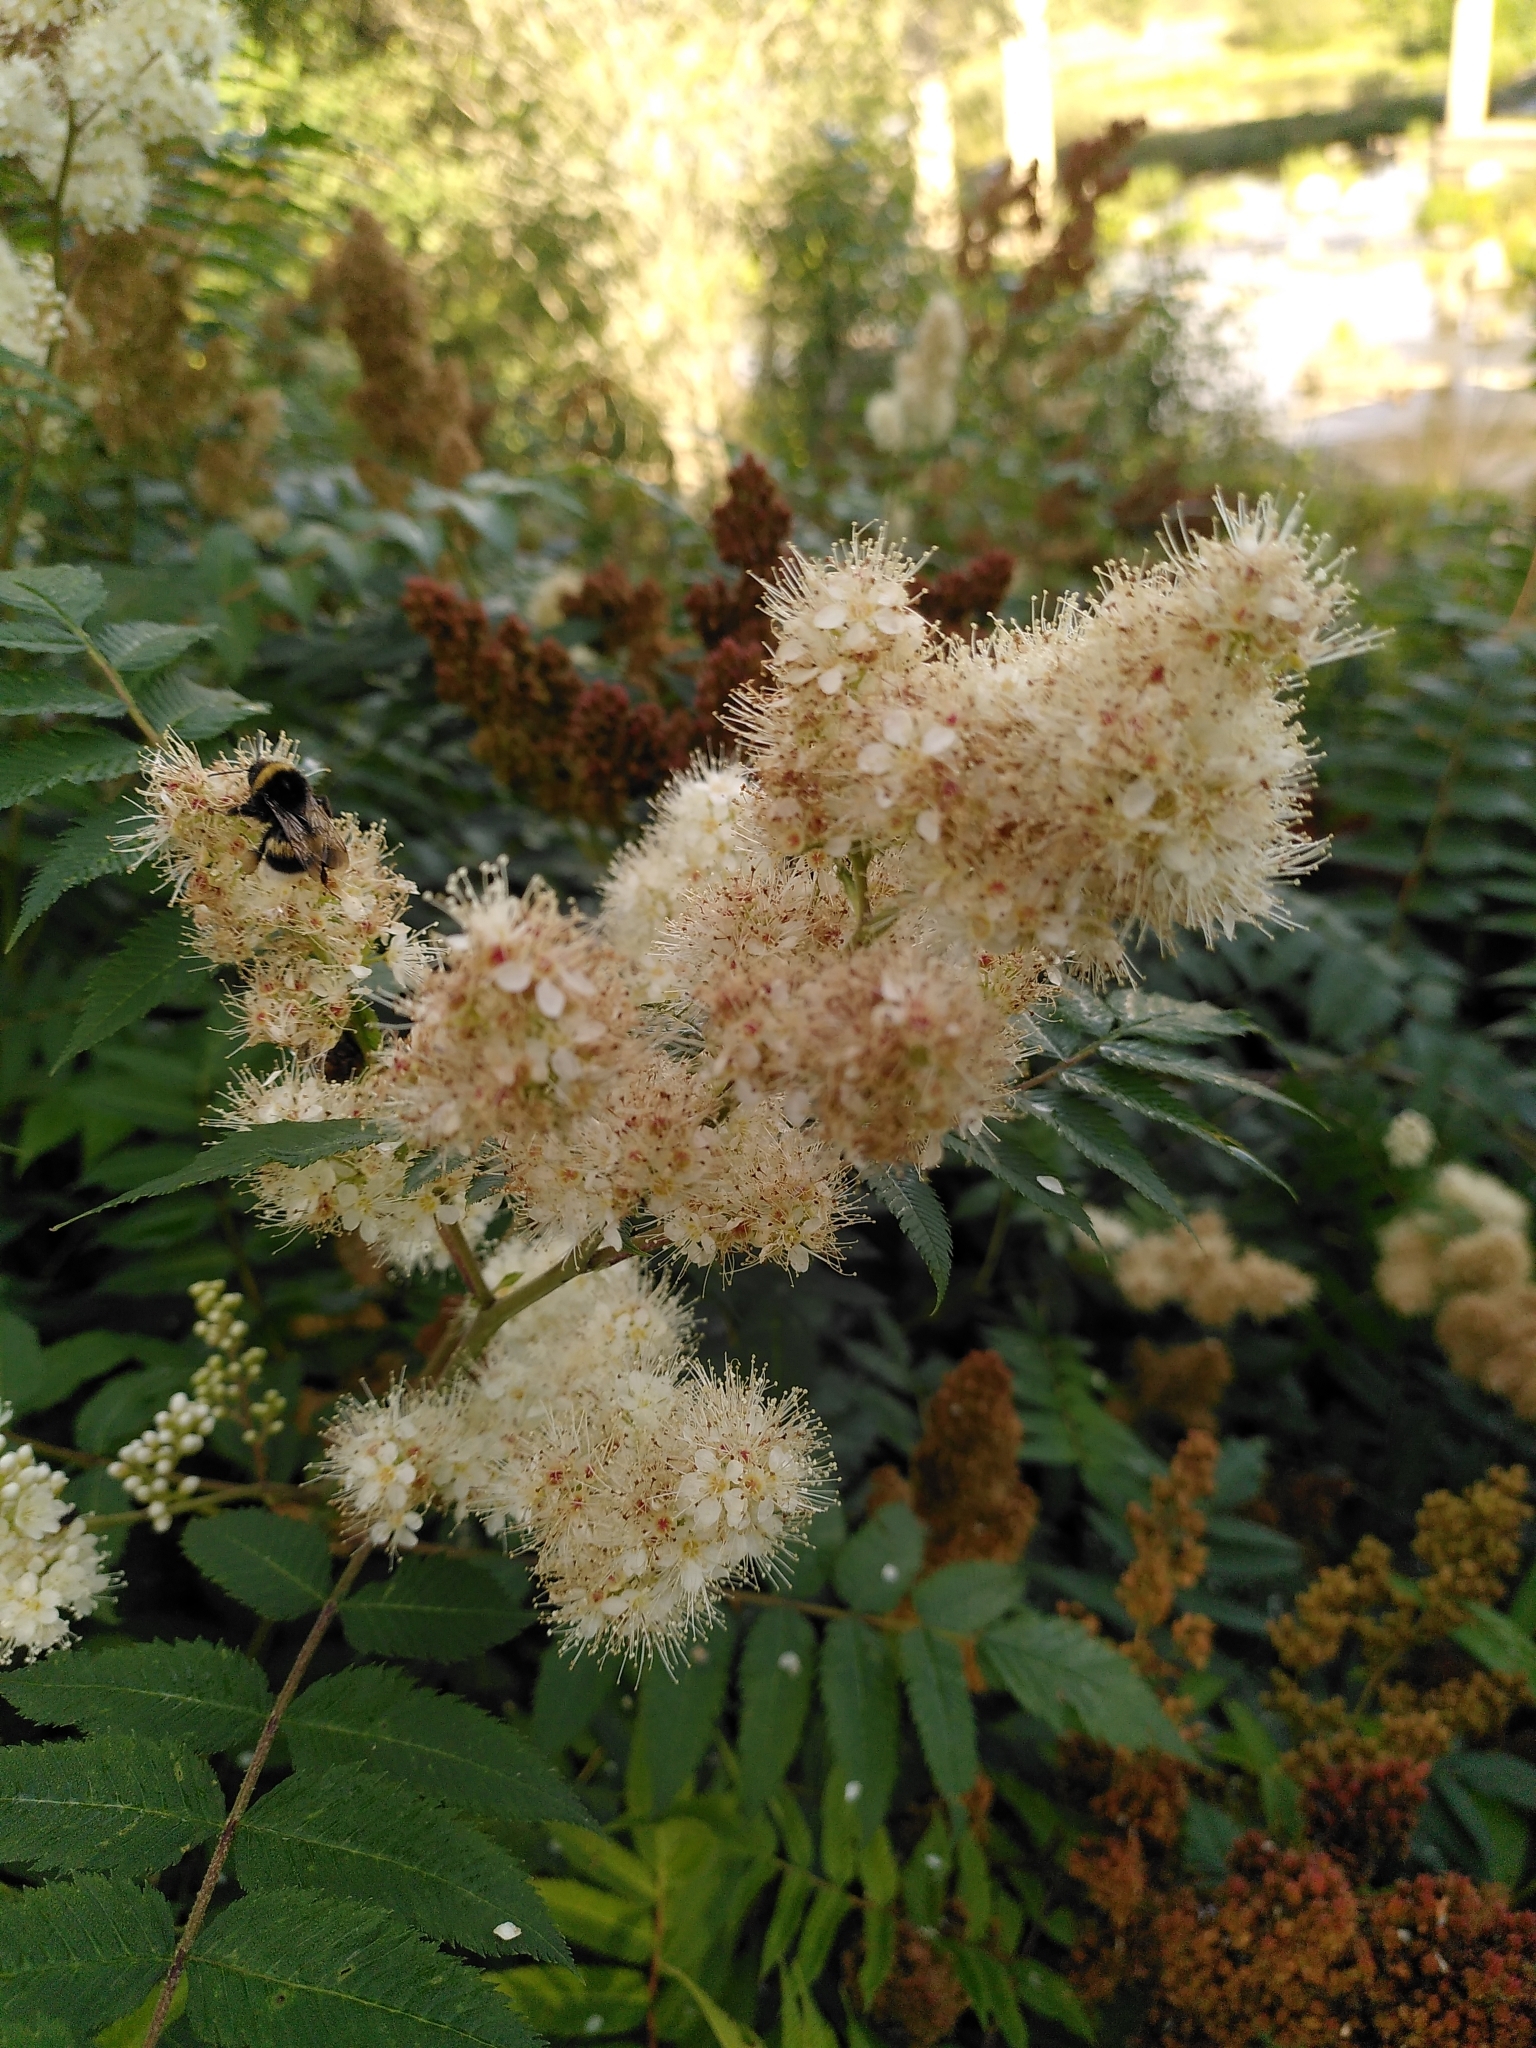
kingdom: Plantae
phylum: Tracheophyta
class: Magnoliopsida
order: Rosales
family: Rosaceae
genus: Sorbaria
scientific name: Sorbaria sorbifolia
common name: False spiraea
